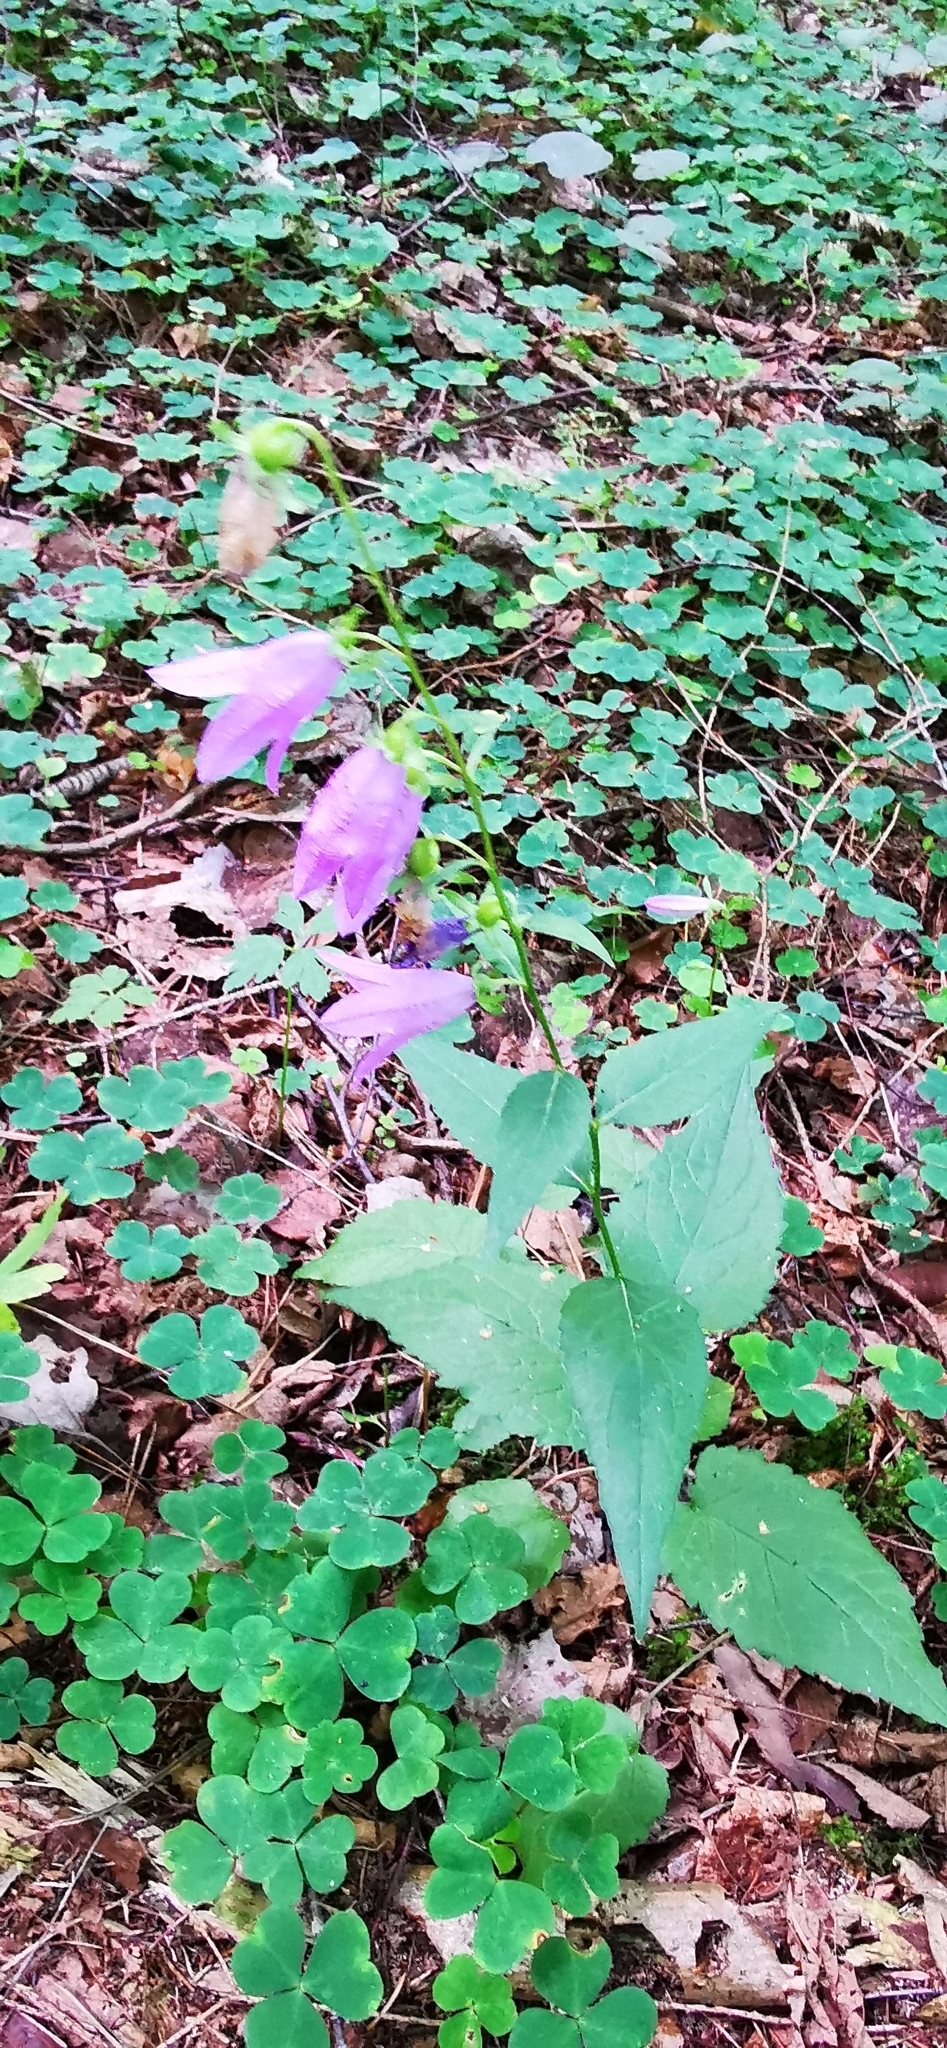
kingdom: Plantae
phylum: Tracheophyta
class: Magnoliopsida
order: Asterales
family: Campanulaceae
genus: Campanula
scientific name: Campanula trachelium
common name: Nettle-leaved bellflower
